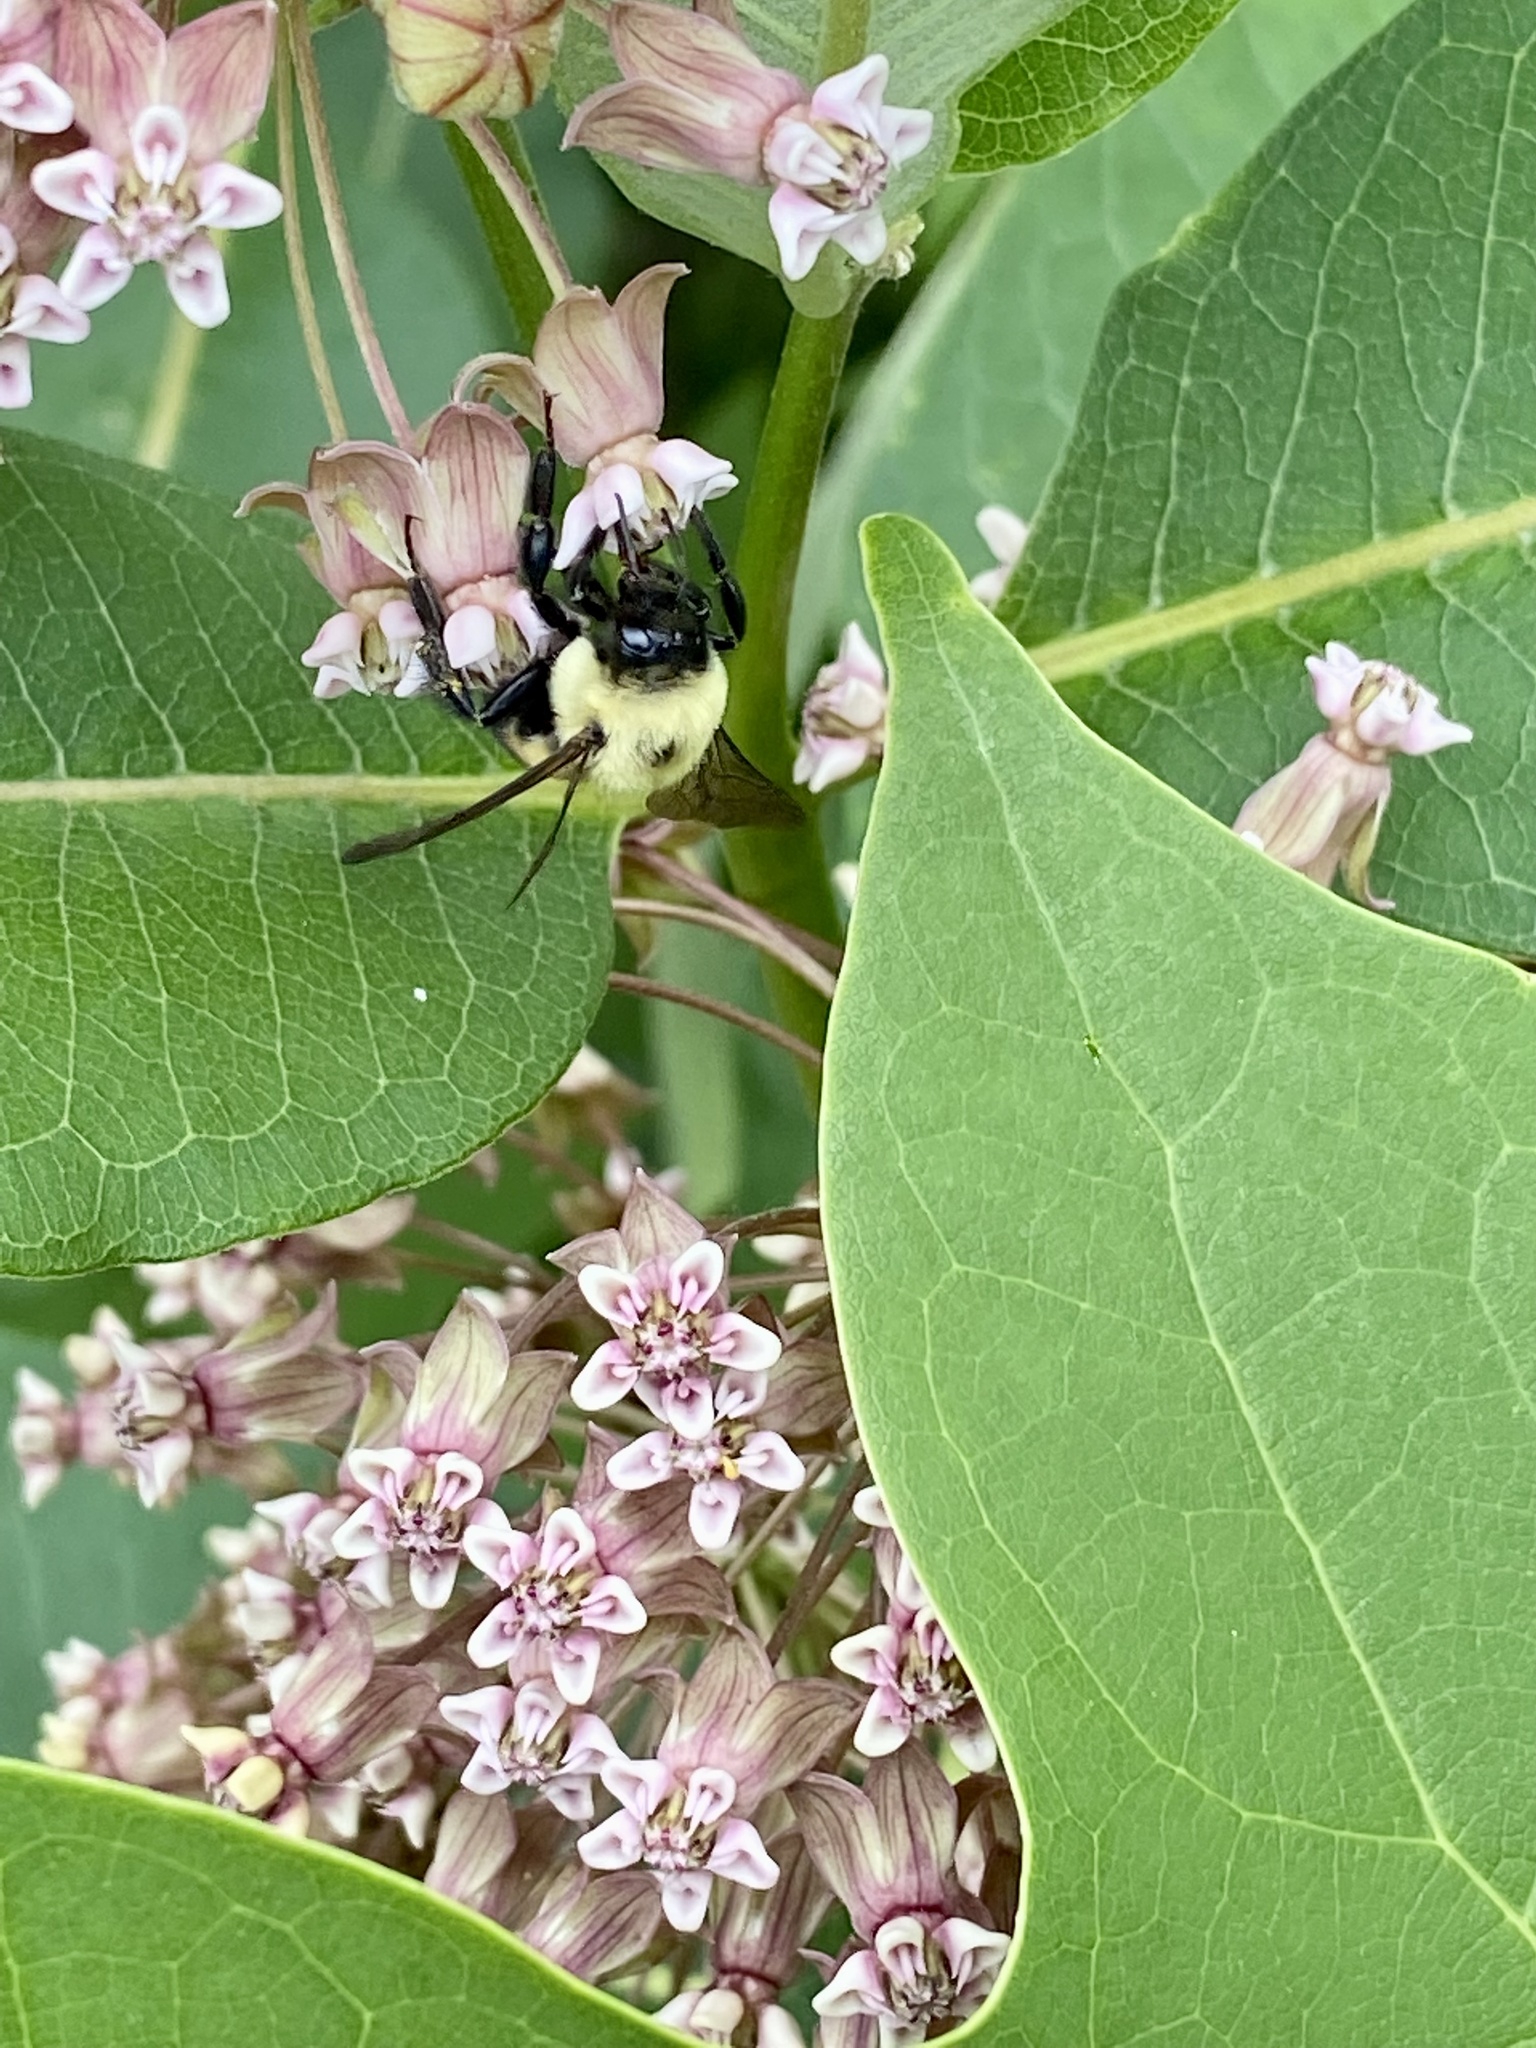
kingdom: Animalia
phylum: Arthropoda
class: Insecta
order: Hymenoptera
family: Apidae
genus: Bombus
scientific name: Bombus griseocollis
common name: Brown-belted bumble bee
